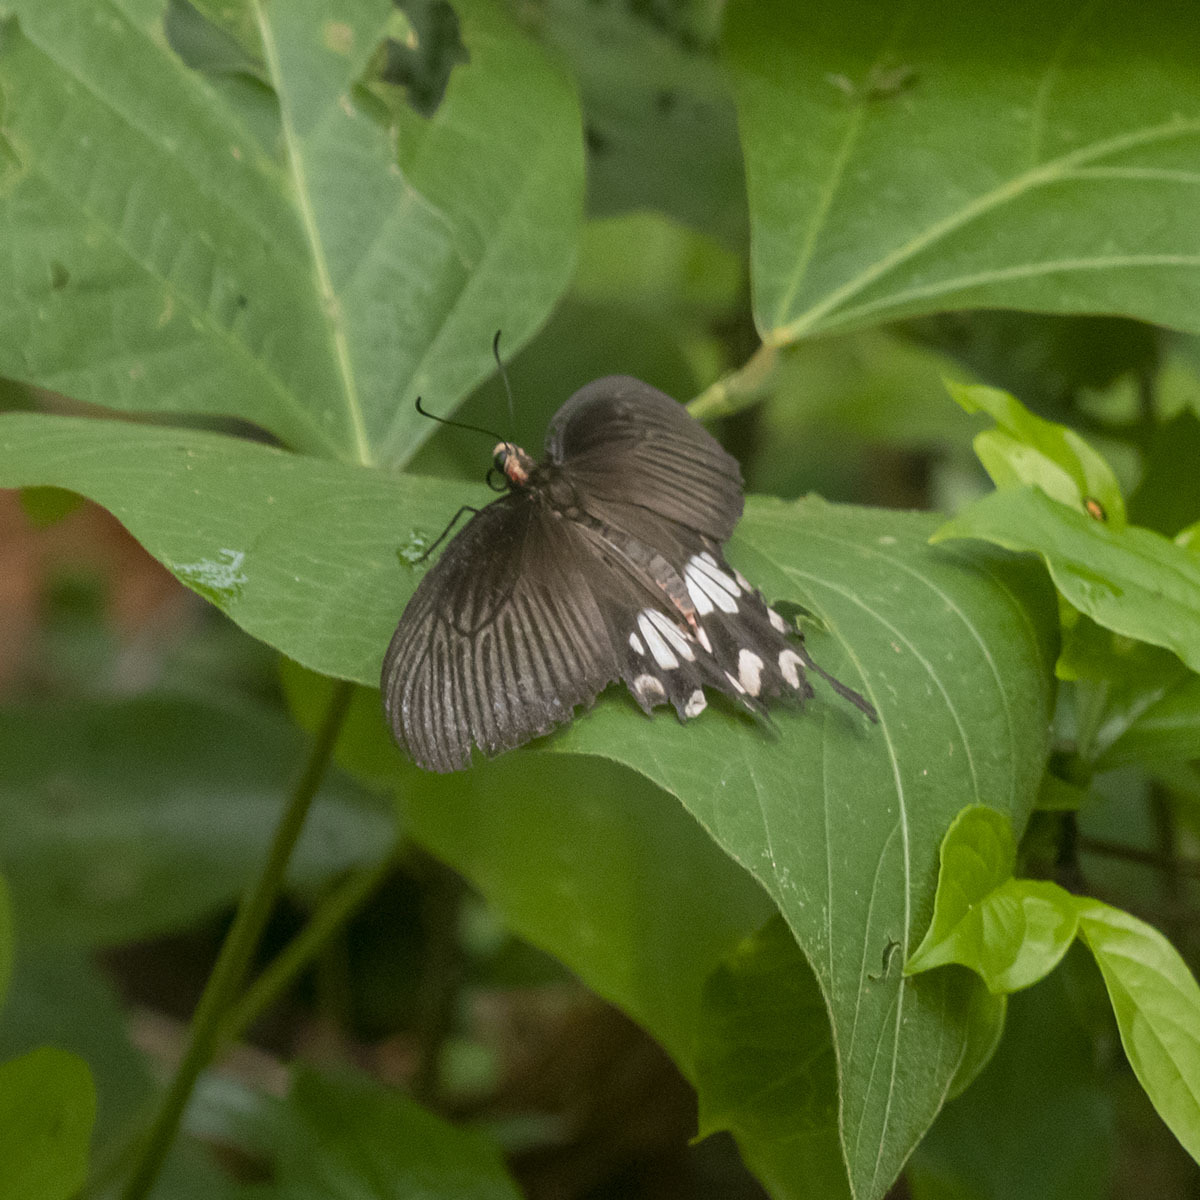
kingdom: Animalia
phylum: Arthropoda
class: Insecta
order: Lepidoptera
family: Papilionidae
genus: Pachliopta
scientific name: Pachliopta aristolochiae
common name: Common rose
